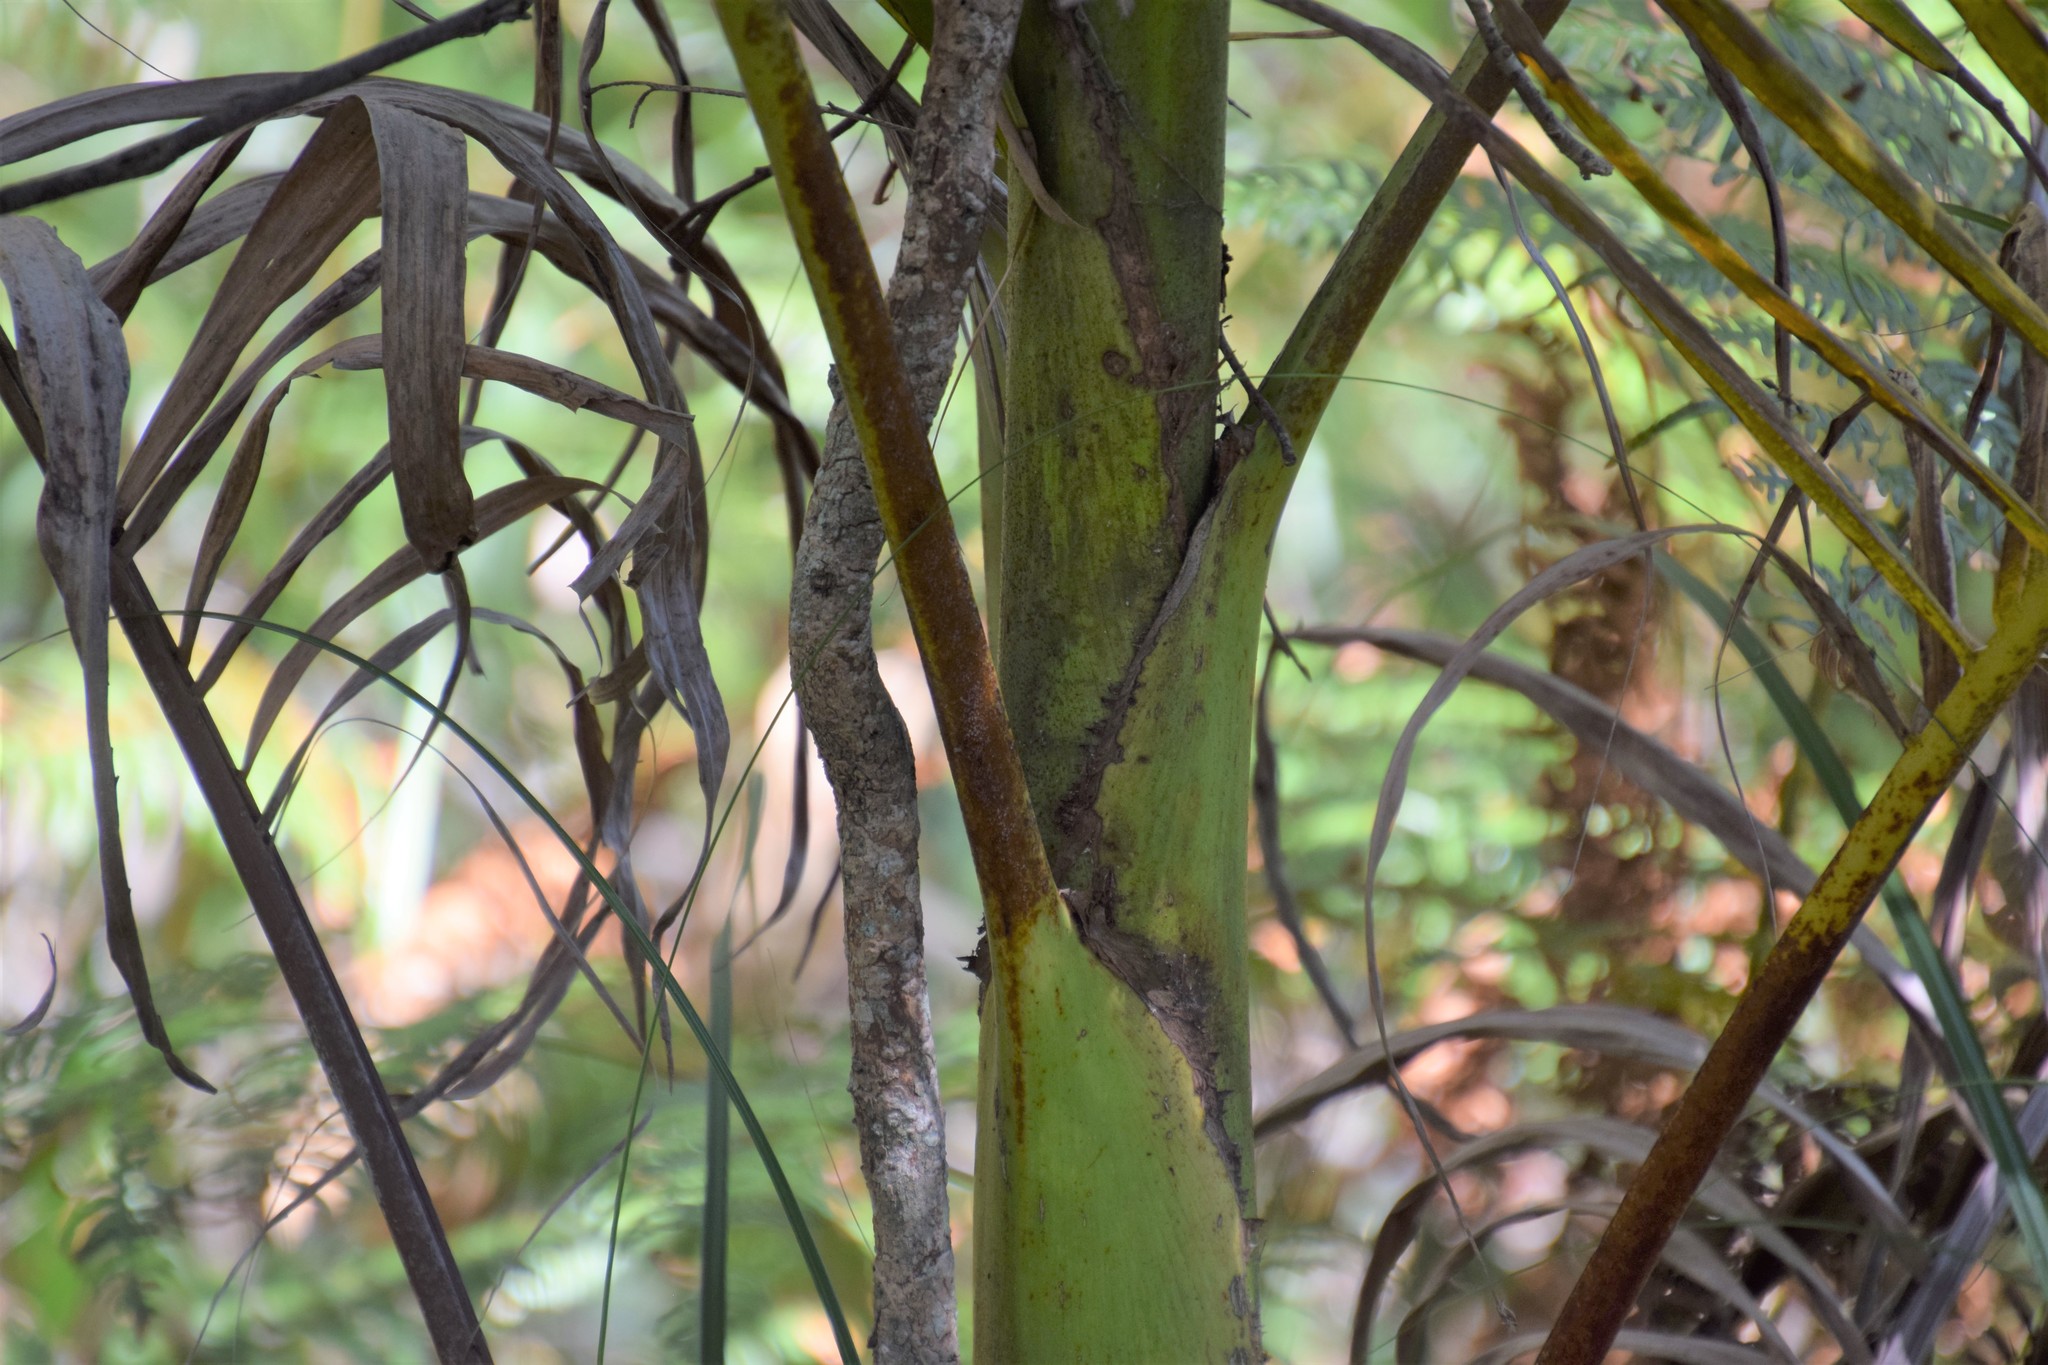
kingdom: Plantae
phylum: Tracheophyta
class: Liliopsida
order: Arecales
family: Arecaceae
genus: Archontophoenix
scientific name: Archontophoenix cunninghamiana
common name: Piccabeen bangalow palm
